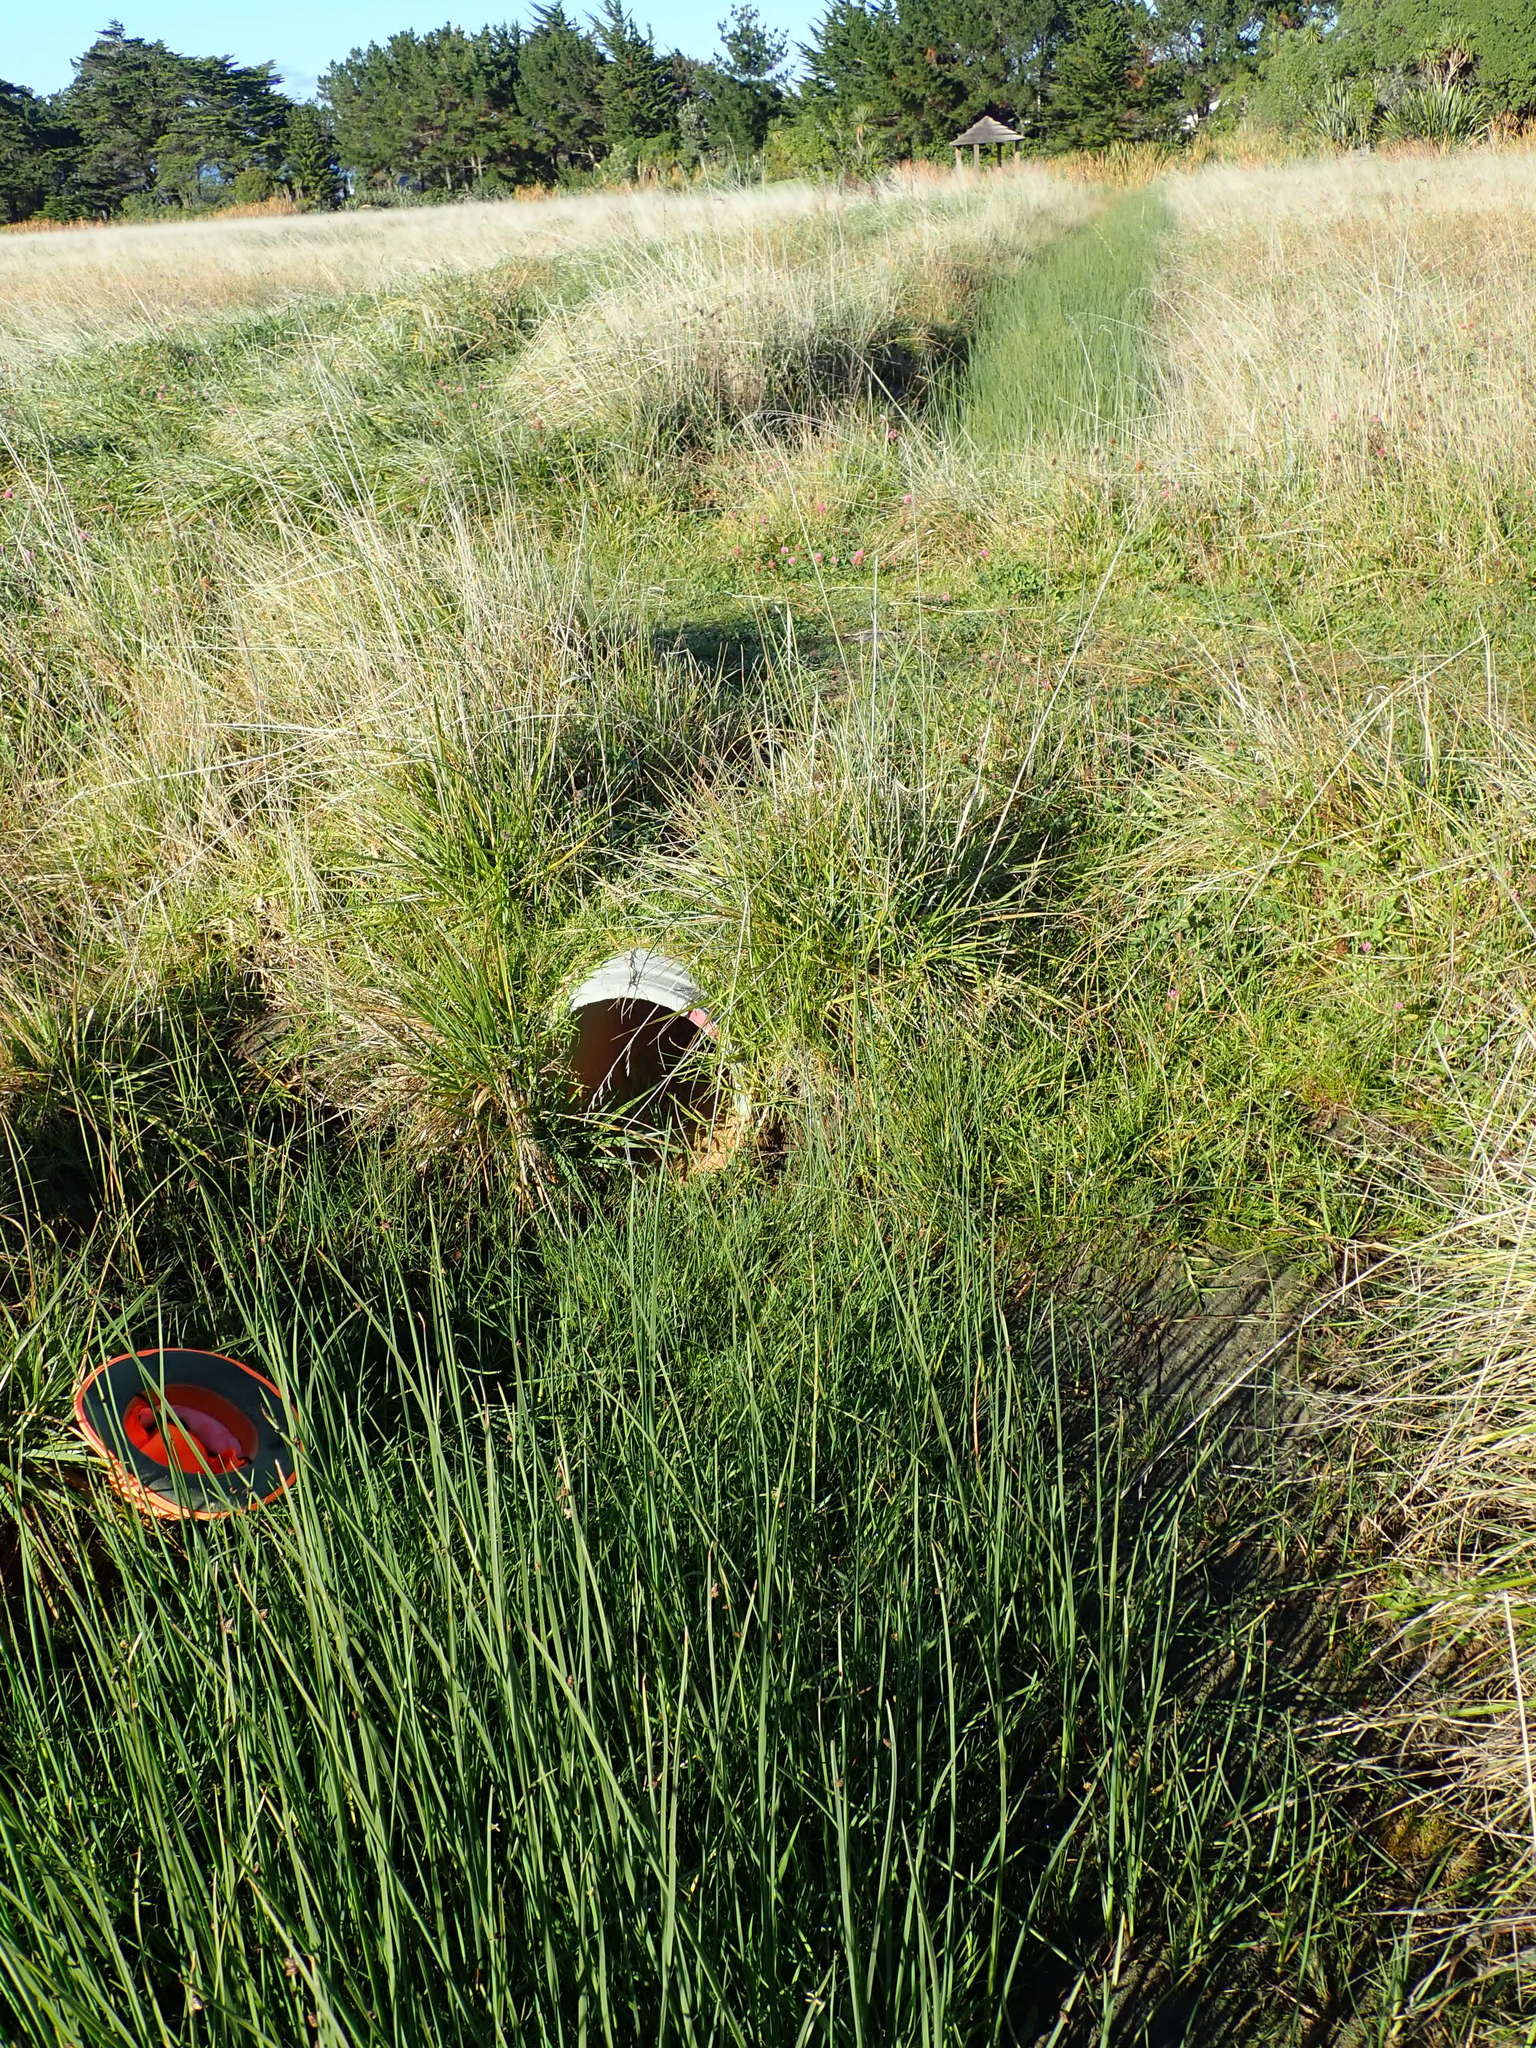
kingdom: Plantae
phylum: Tracheophyta
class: Liliopsida
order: Poales
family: Cyperaceae
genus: Isolepis
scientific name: Isolepis cernua
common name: Slender club-rush
